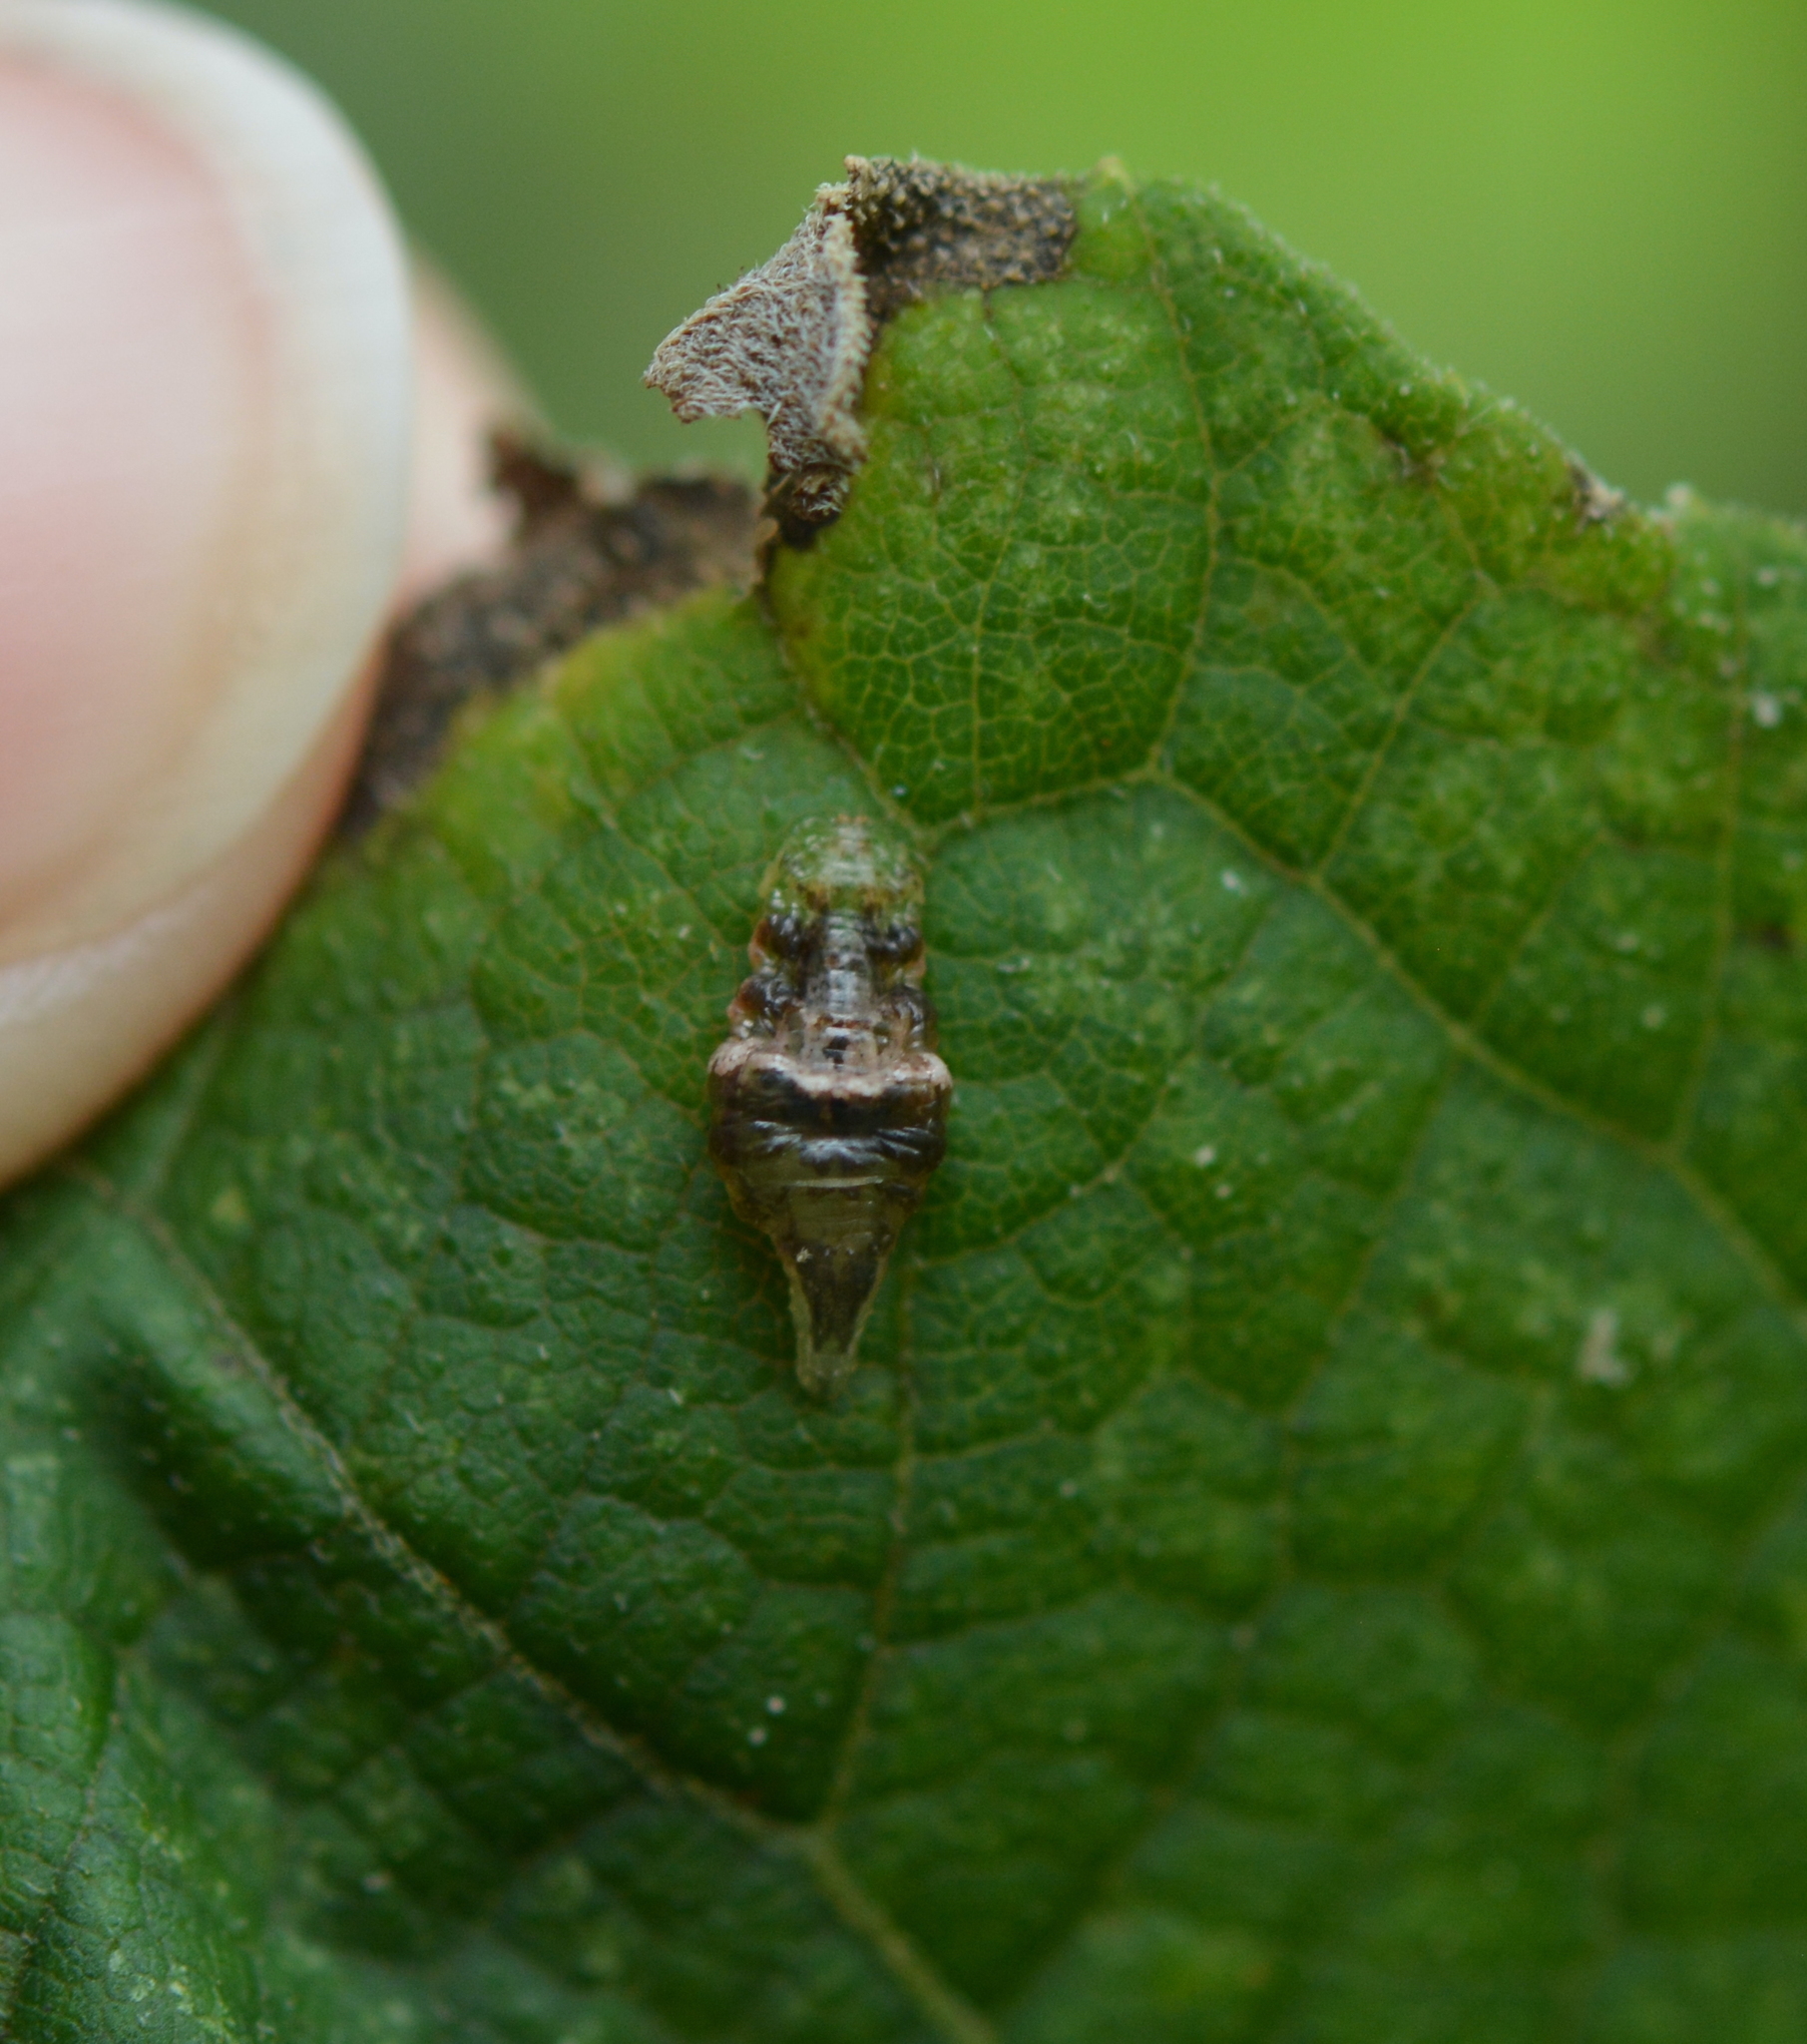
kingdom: Animalia
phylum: Arthropoda
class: Insecta
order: Diptera
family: Syrphidae
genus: Ocyptamus
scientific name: Ocyptamus fuscipennis
